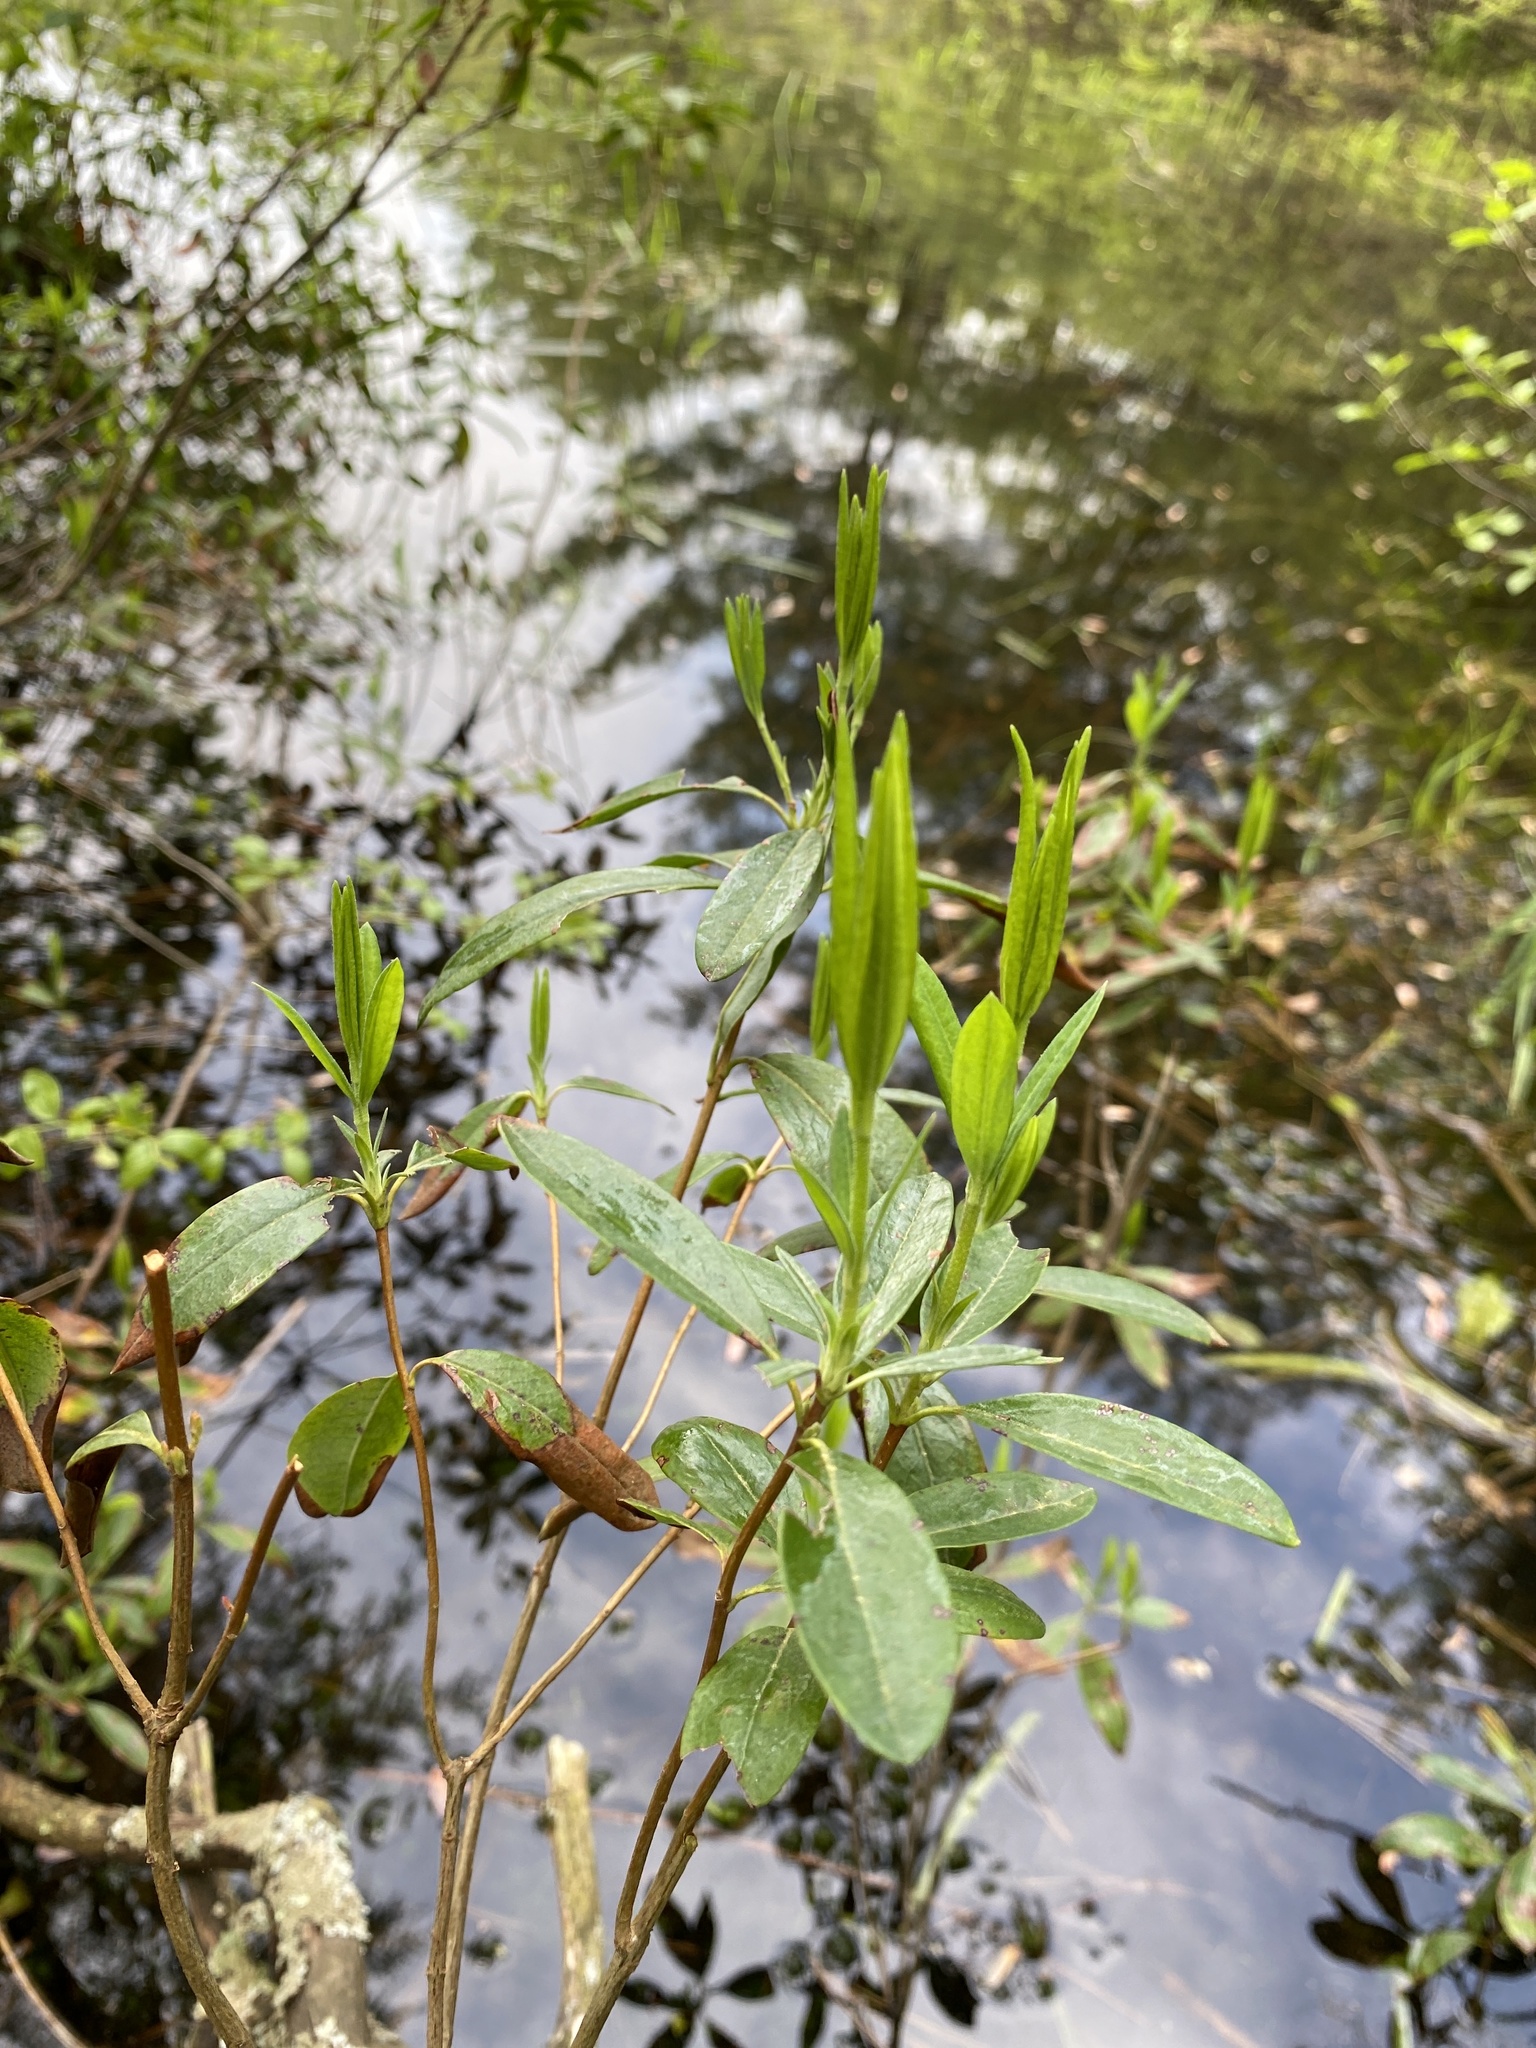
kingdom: Plantae
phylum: Tracheophyta
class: Magnoliopsida
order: Ericales
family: Ericaceae
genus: Kalmia
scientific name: Kalmia angustifolia
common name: Sheep-laurel
